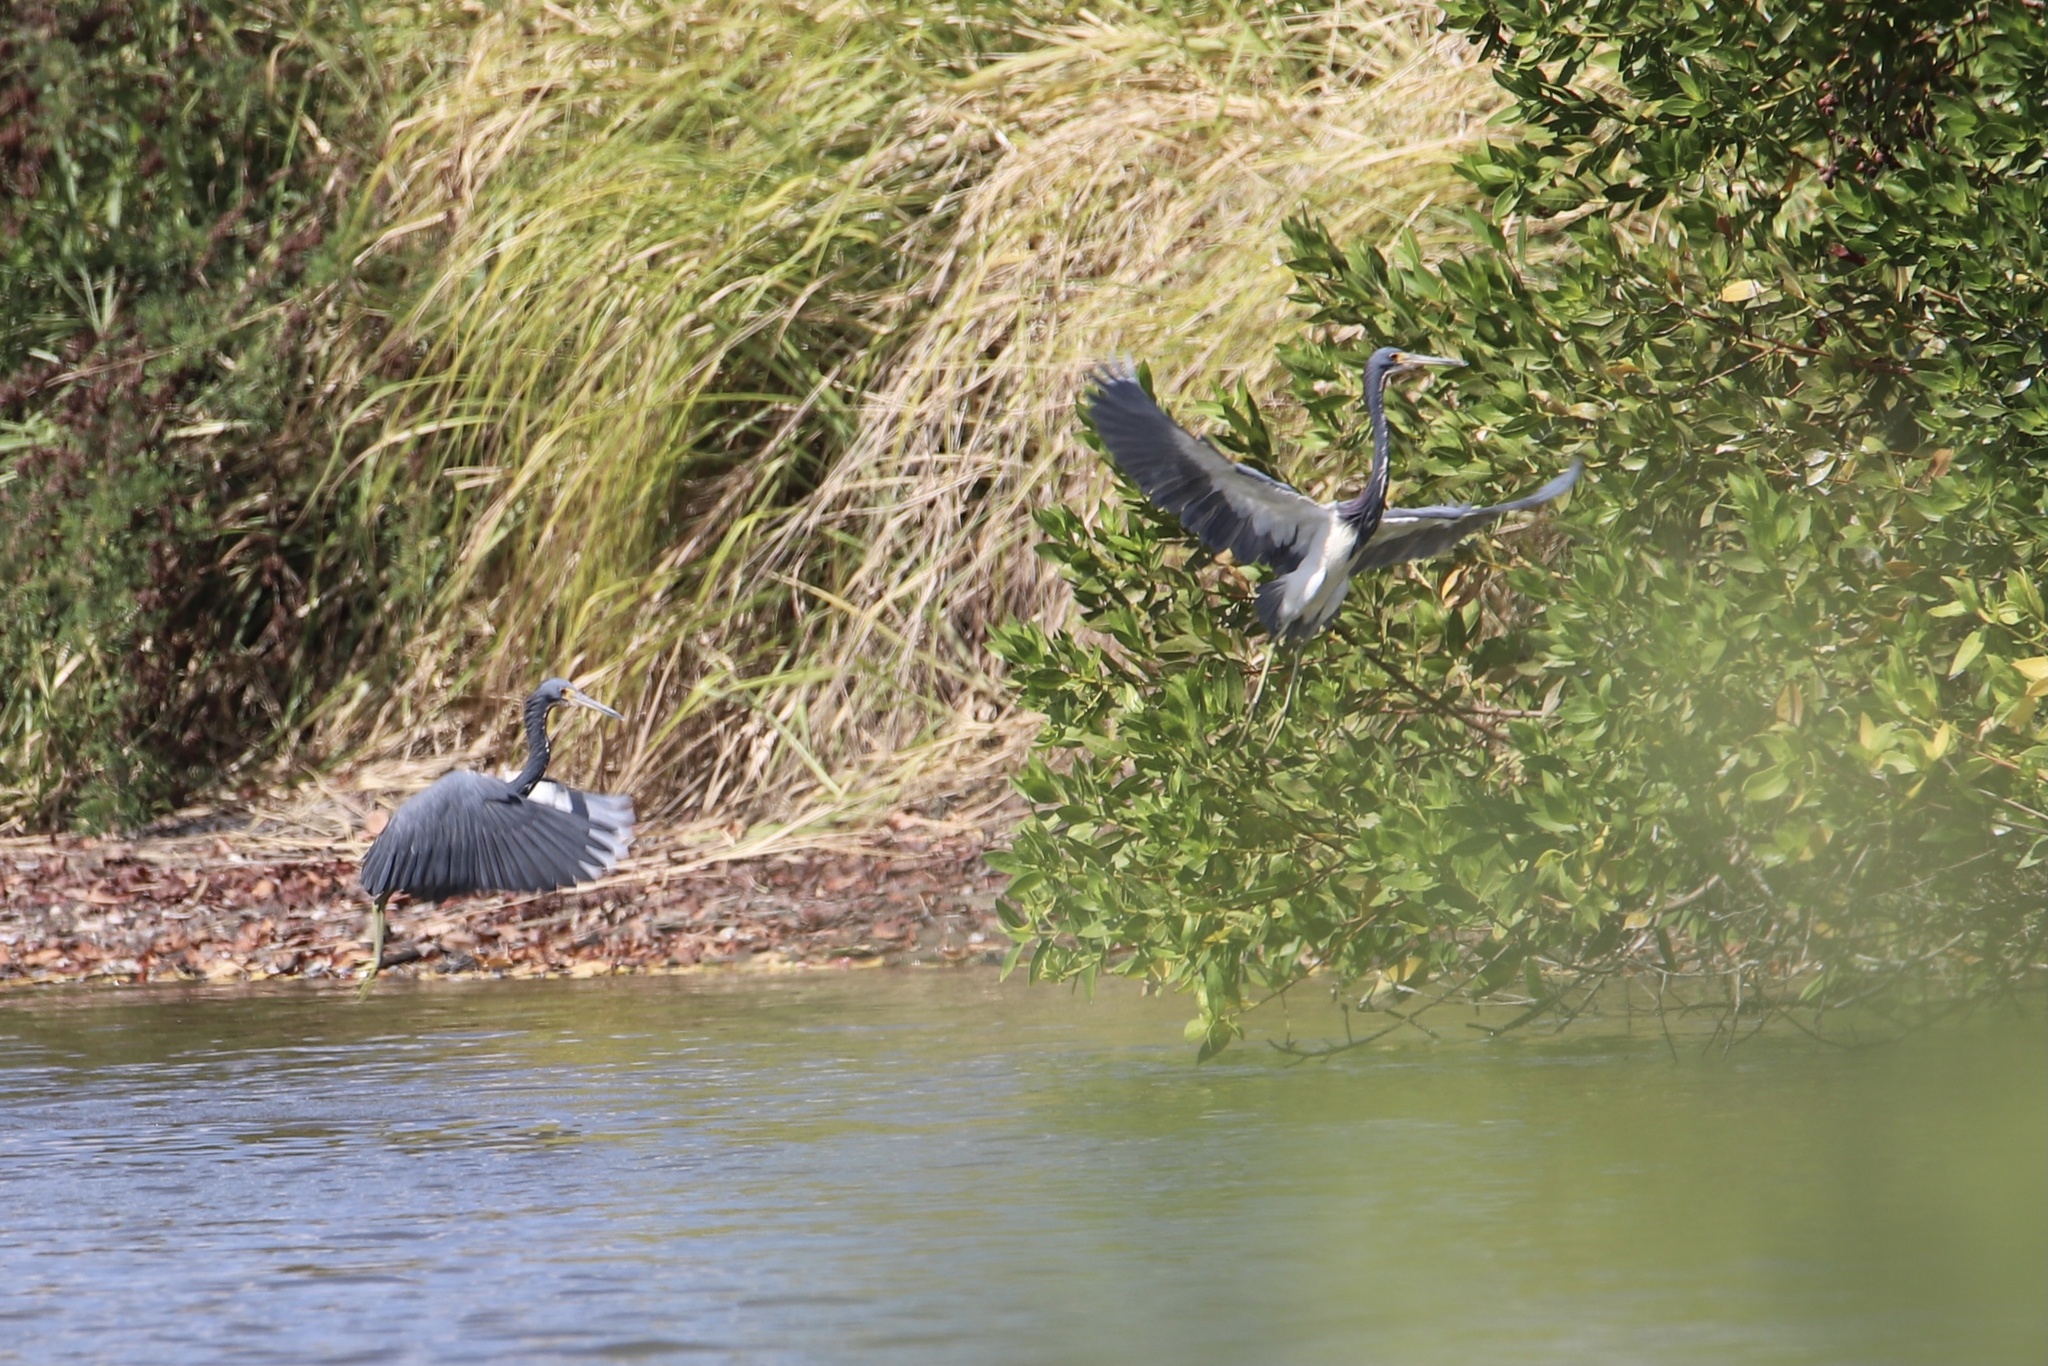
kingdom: Animalia
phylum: Chordata
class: Aves
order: Pelecaniformes
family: Ardeidae
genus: Egretta
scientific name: Egretta tricolor
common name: Tricolored heron
